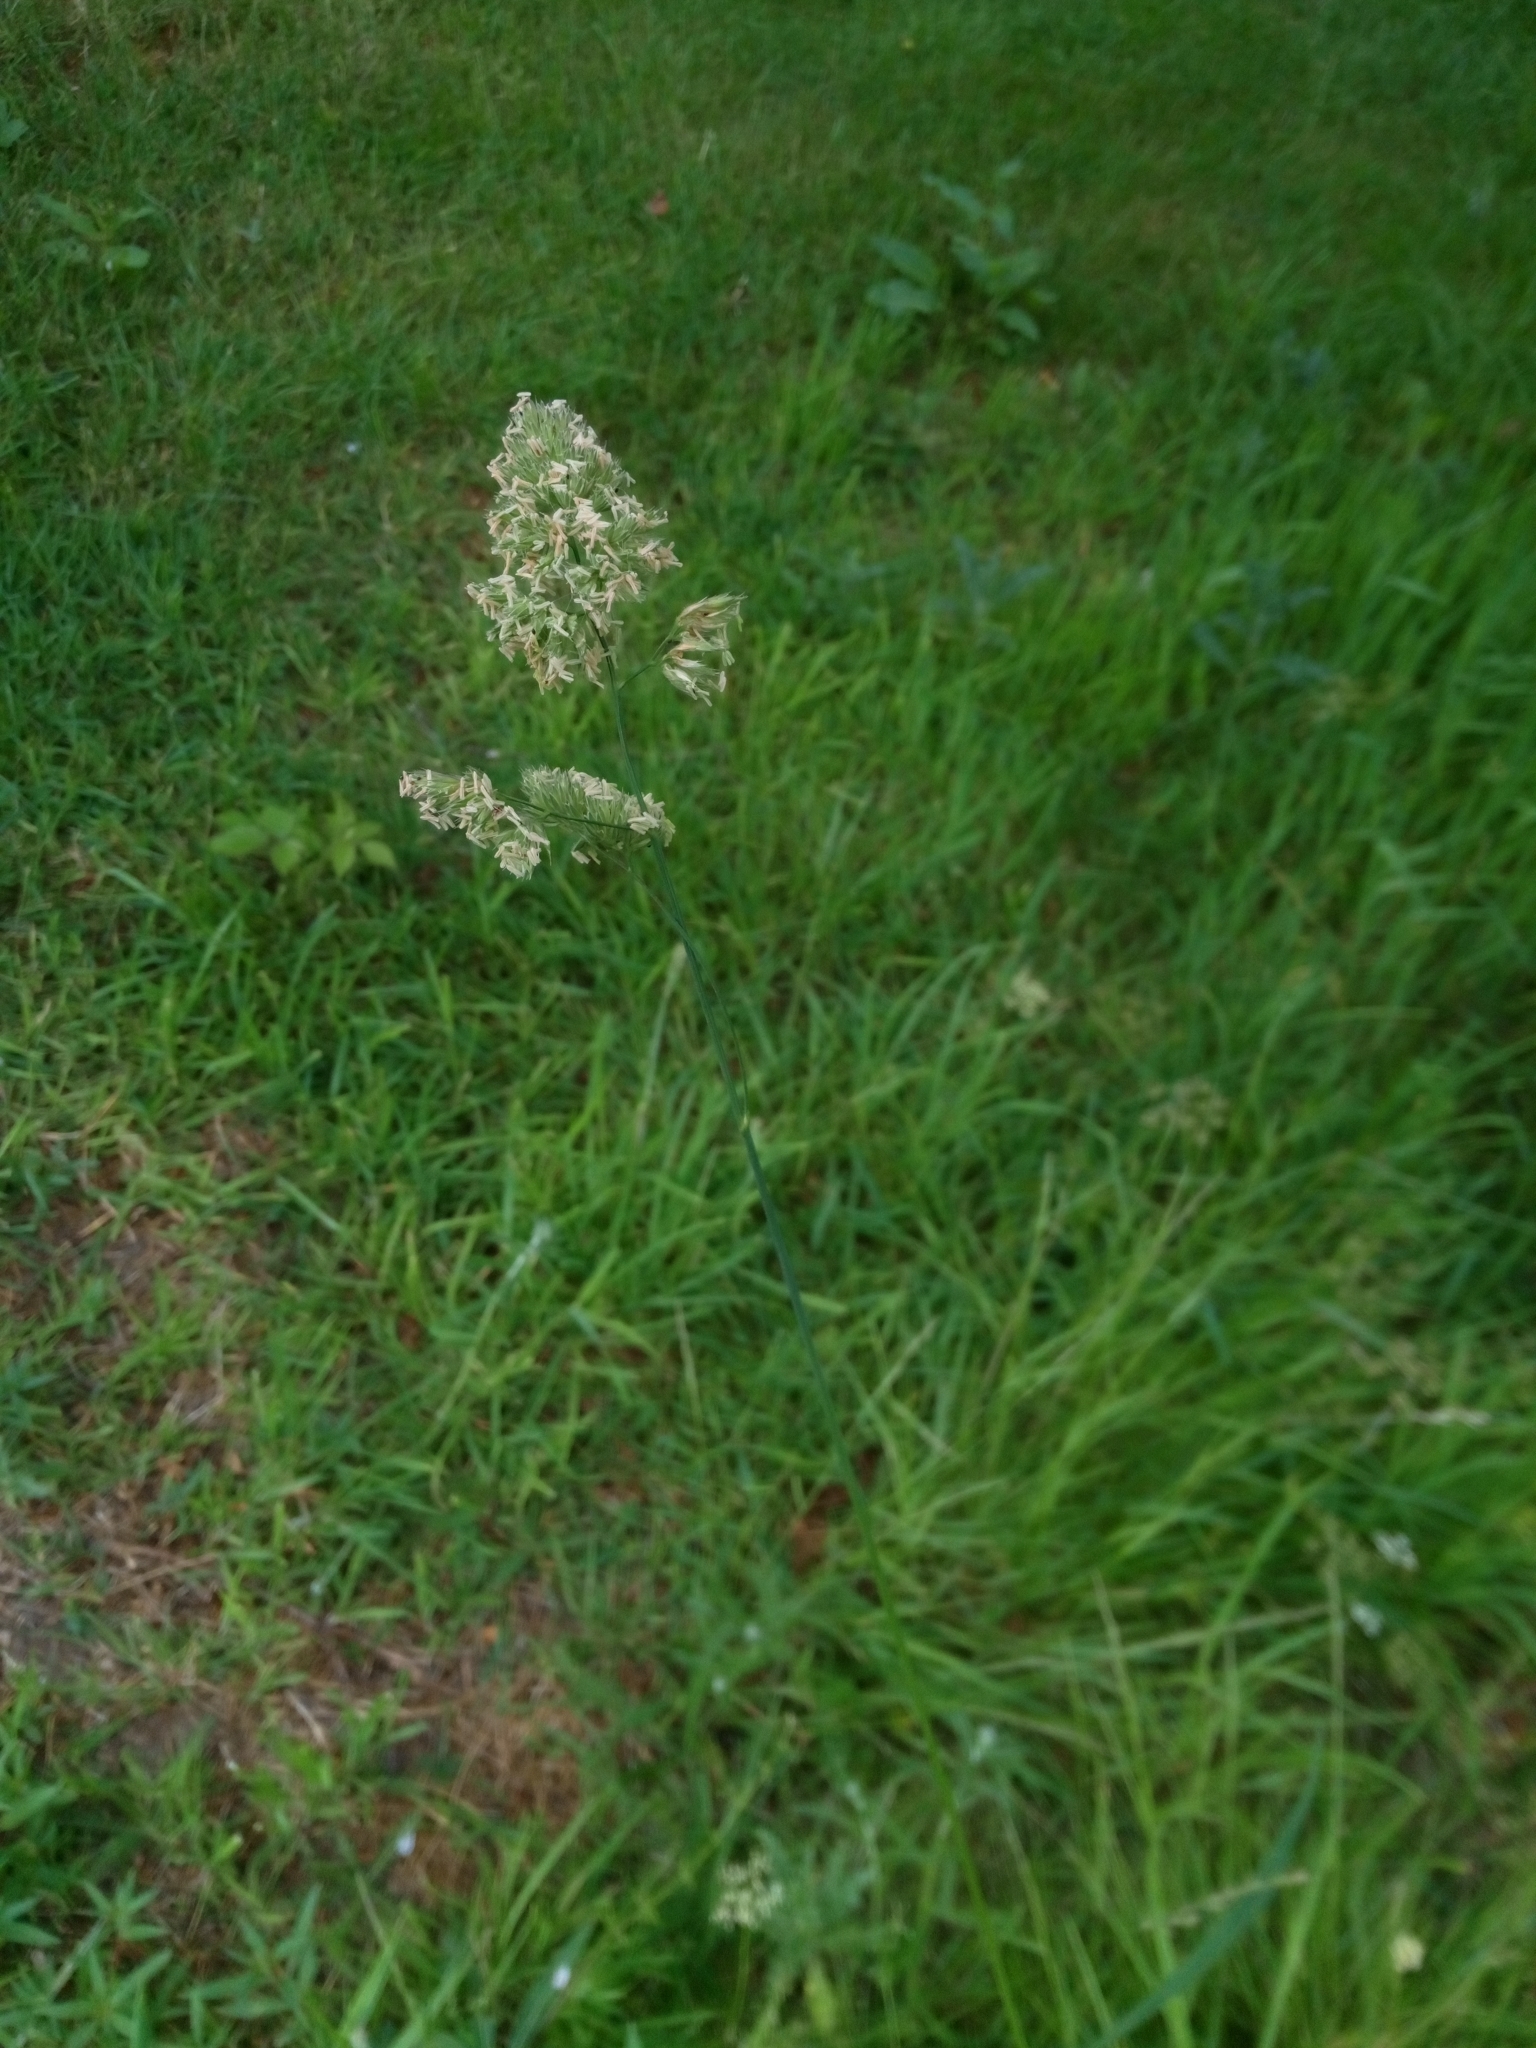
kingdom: Plantae
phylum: Tracheophyta
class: Liliopsida
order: Poales
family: Poaceae
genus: Dactylis
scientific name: Dactylis glomerata
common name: Orchardgrass
